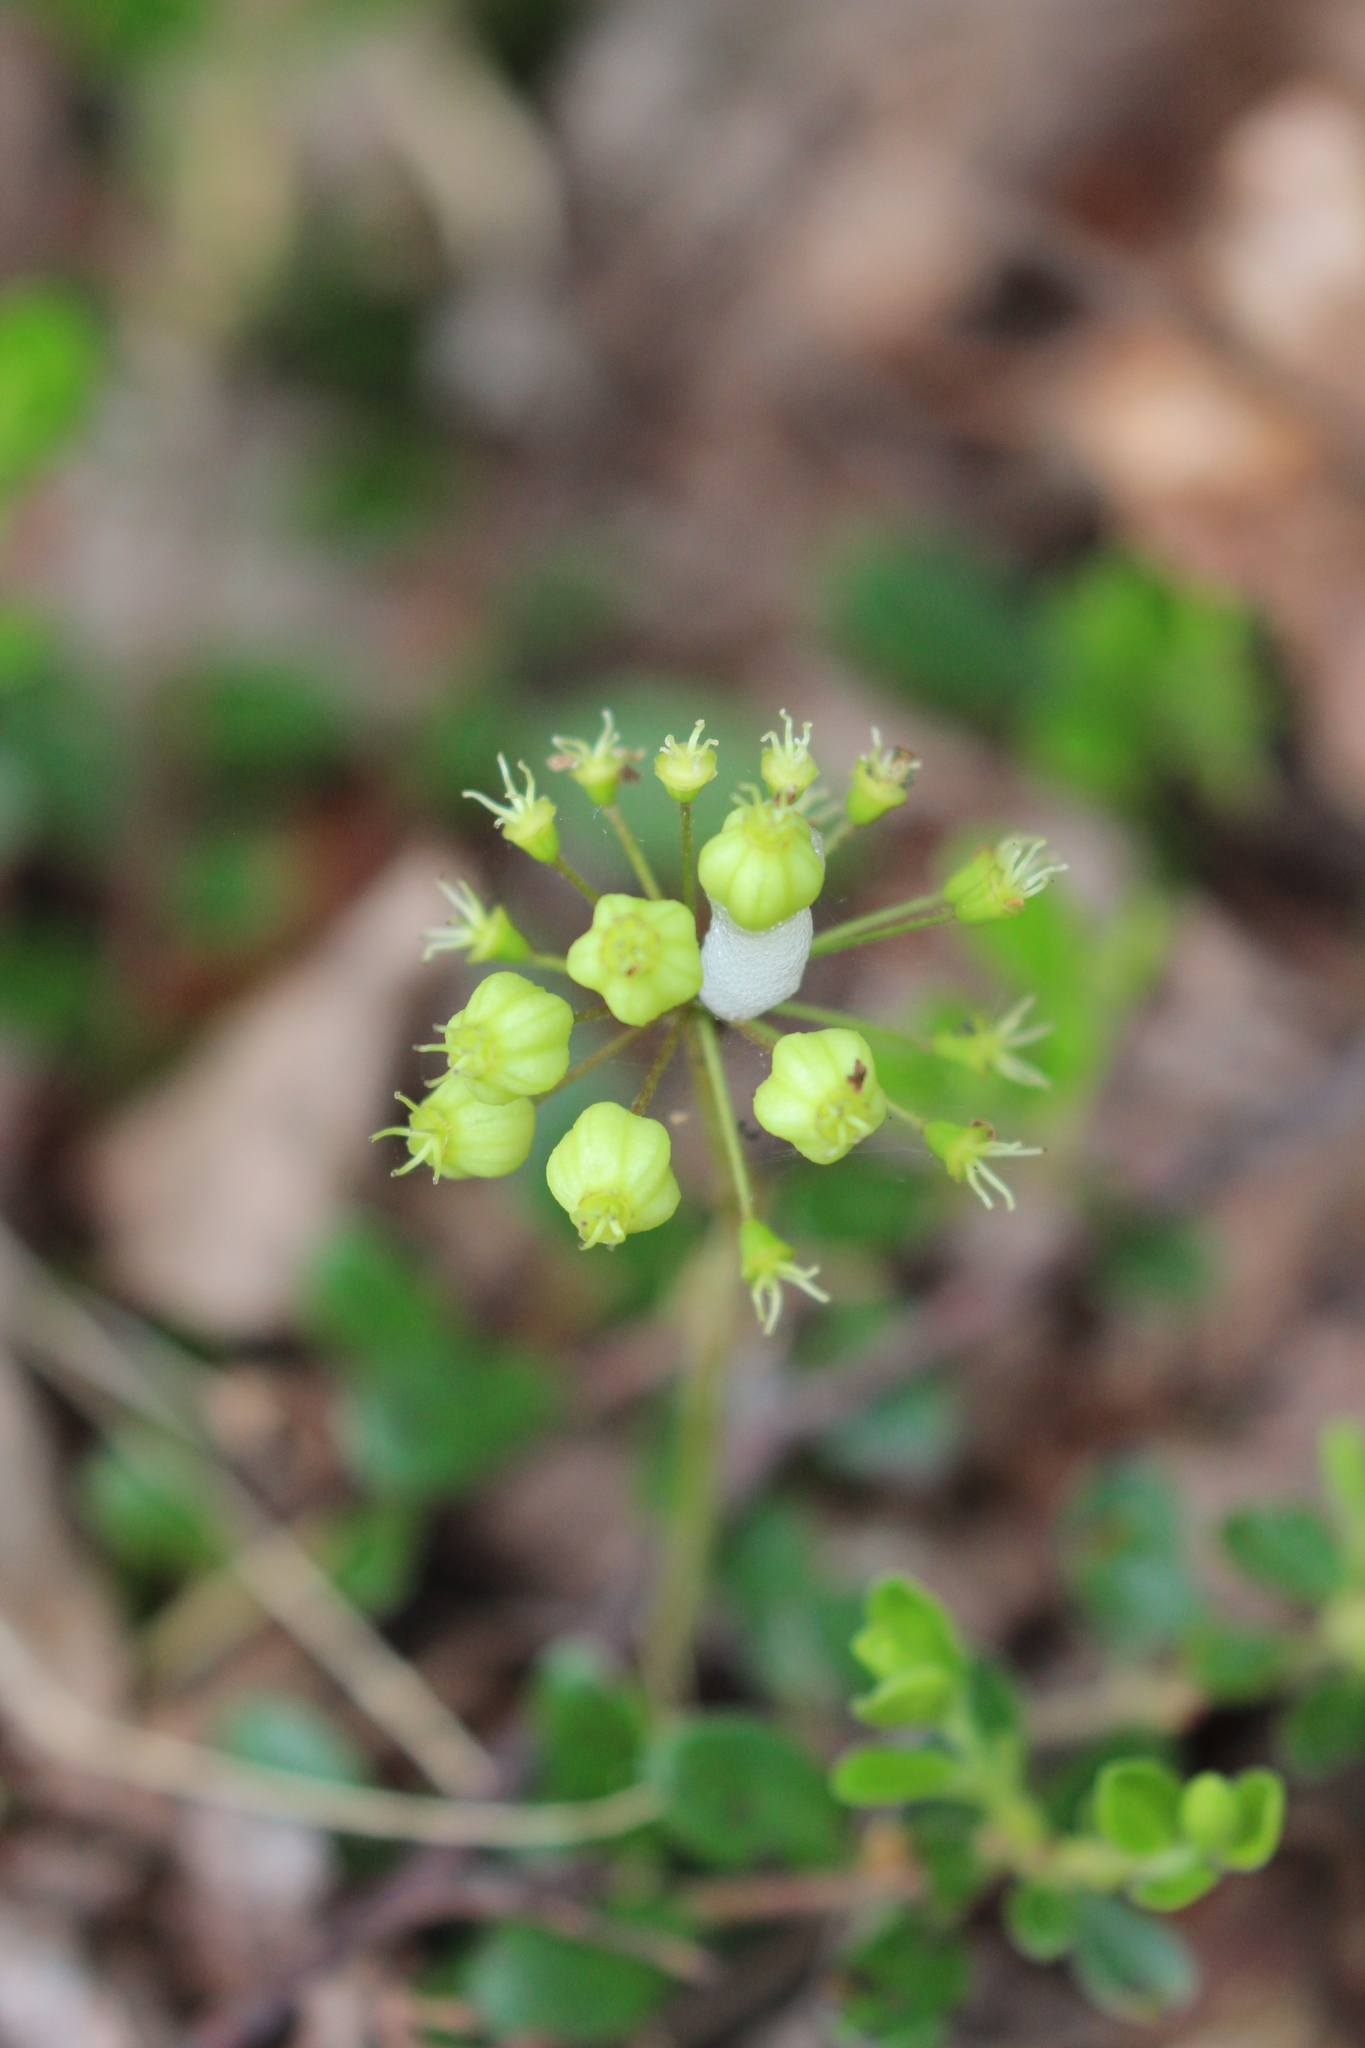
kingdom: Plantae
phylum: Tracheophyta
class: Magnoliopsida
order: Apiales
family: Araliaceae
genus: Aralia
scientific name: Aralia nudicaulis
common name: Wild sarsaparilla
